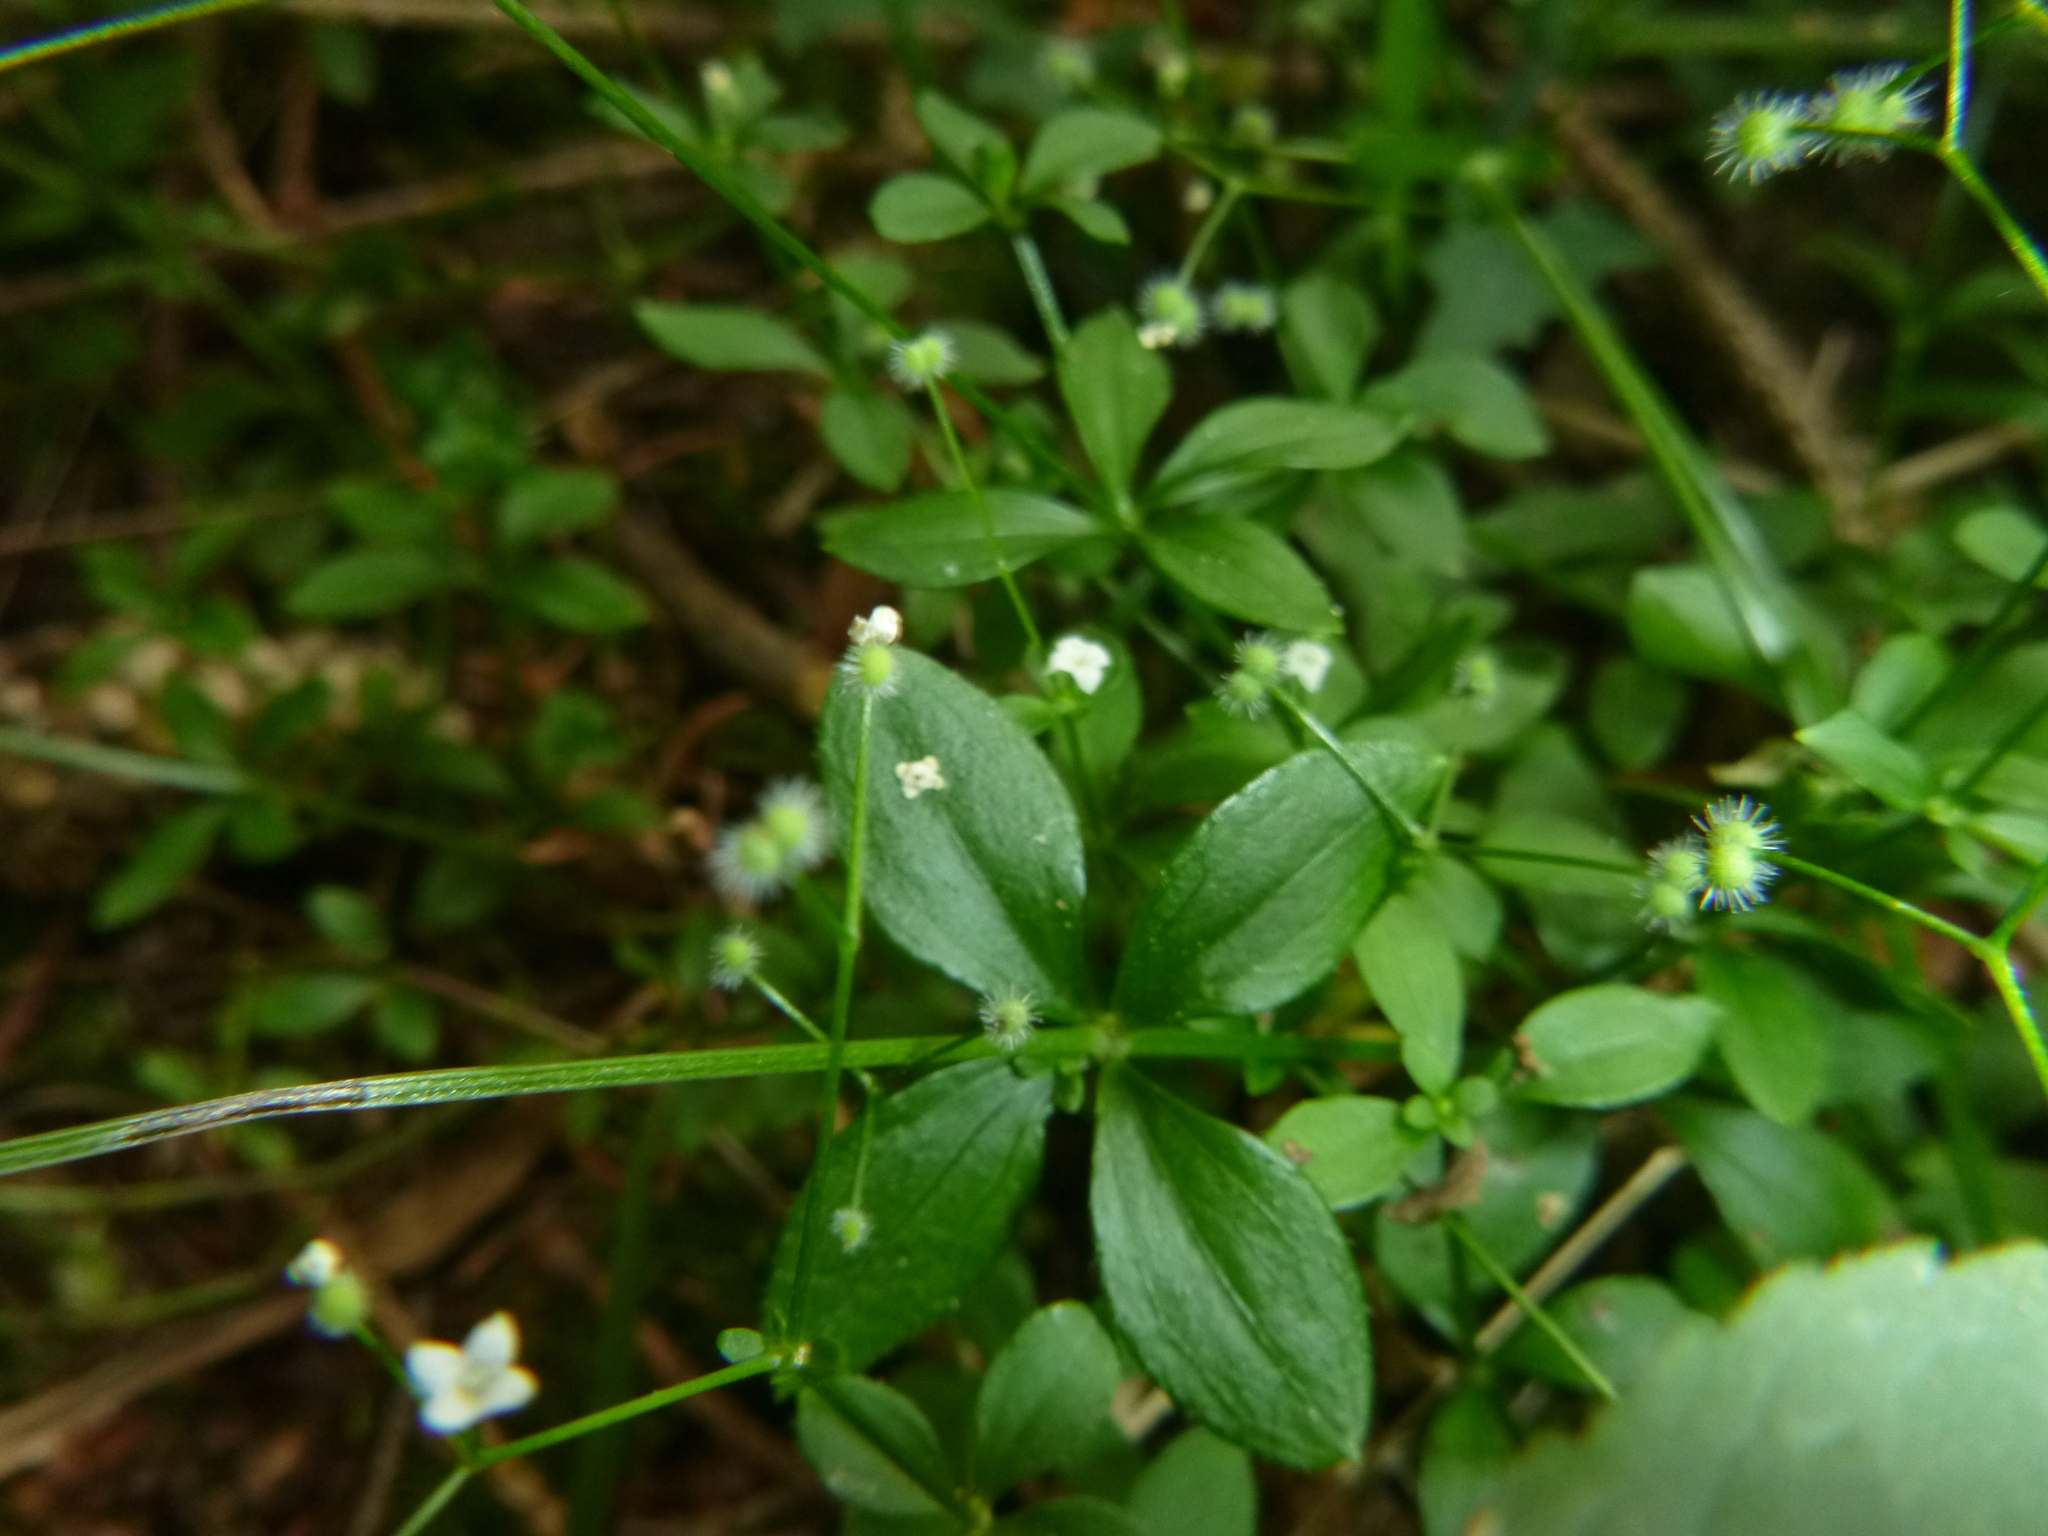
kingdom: Plantae
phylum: Tracheophyta
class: Magnoliopsida
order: Gentianales
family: Rubiaceae
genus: Galium
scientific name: Galium rotundifolium
